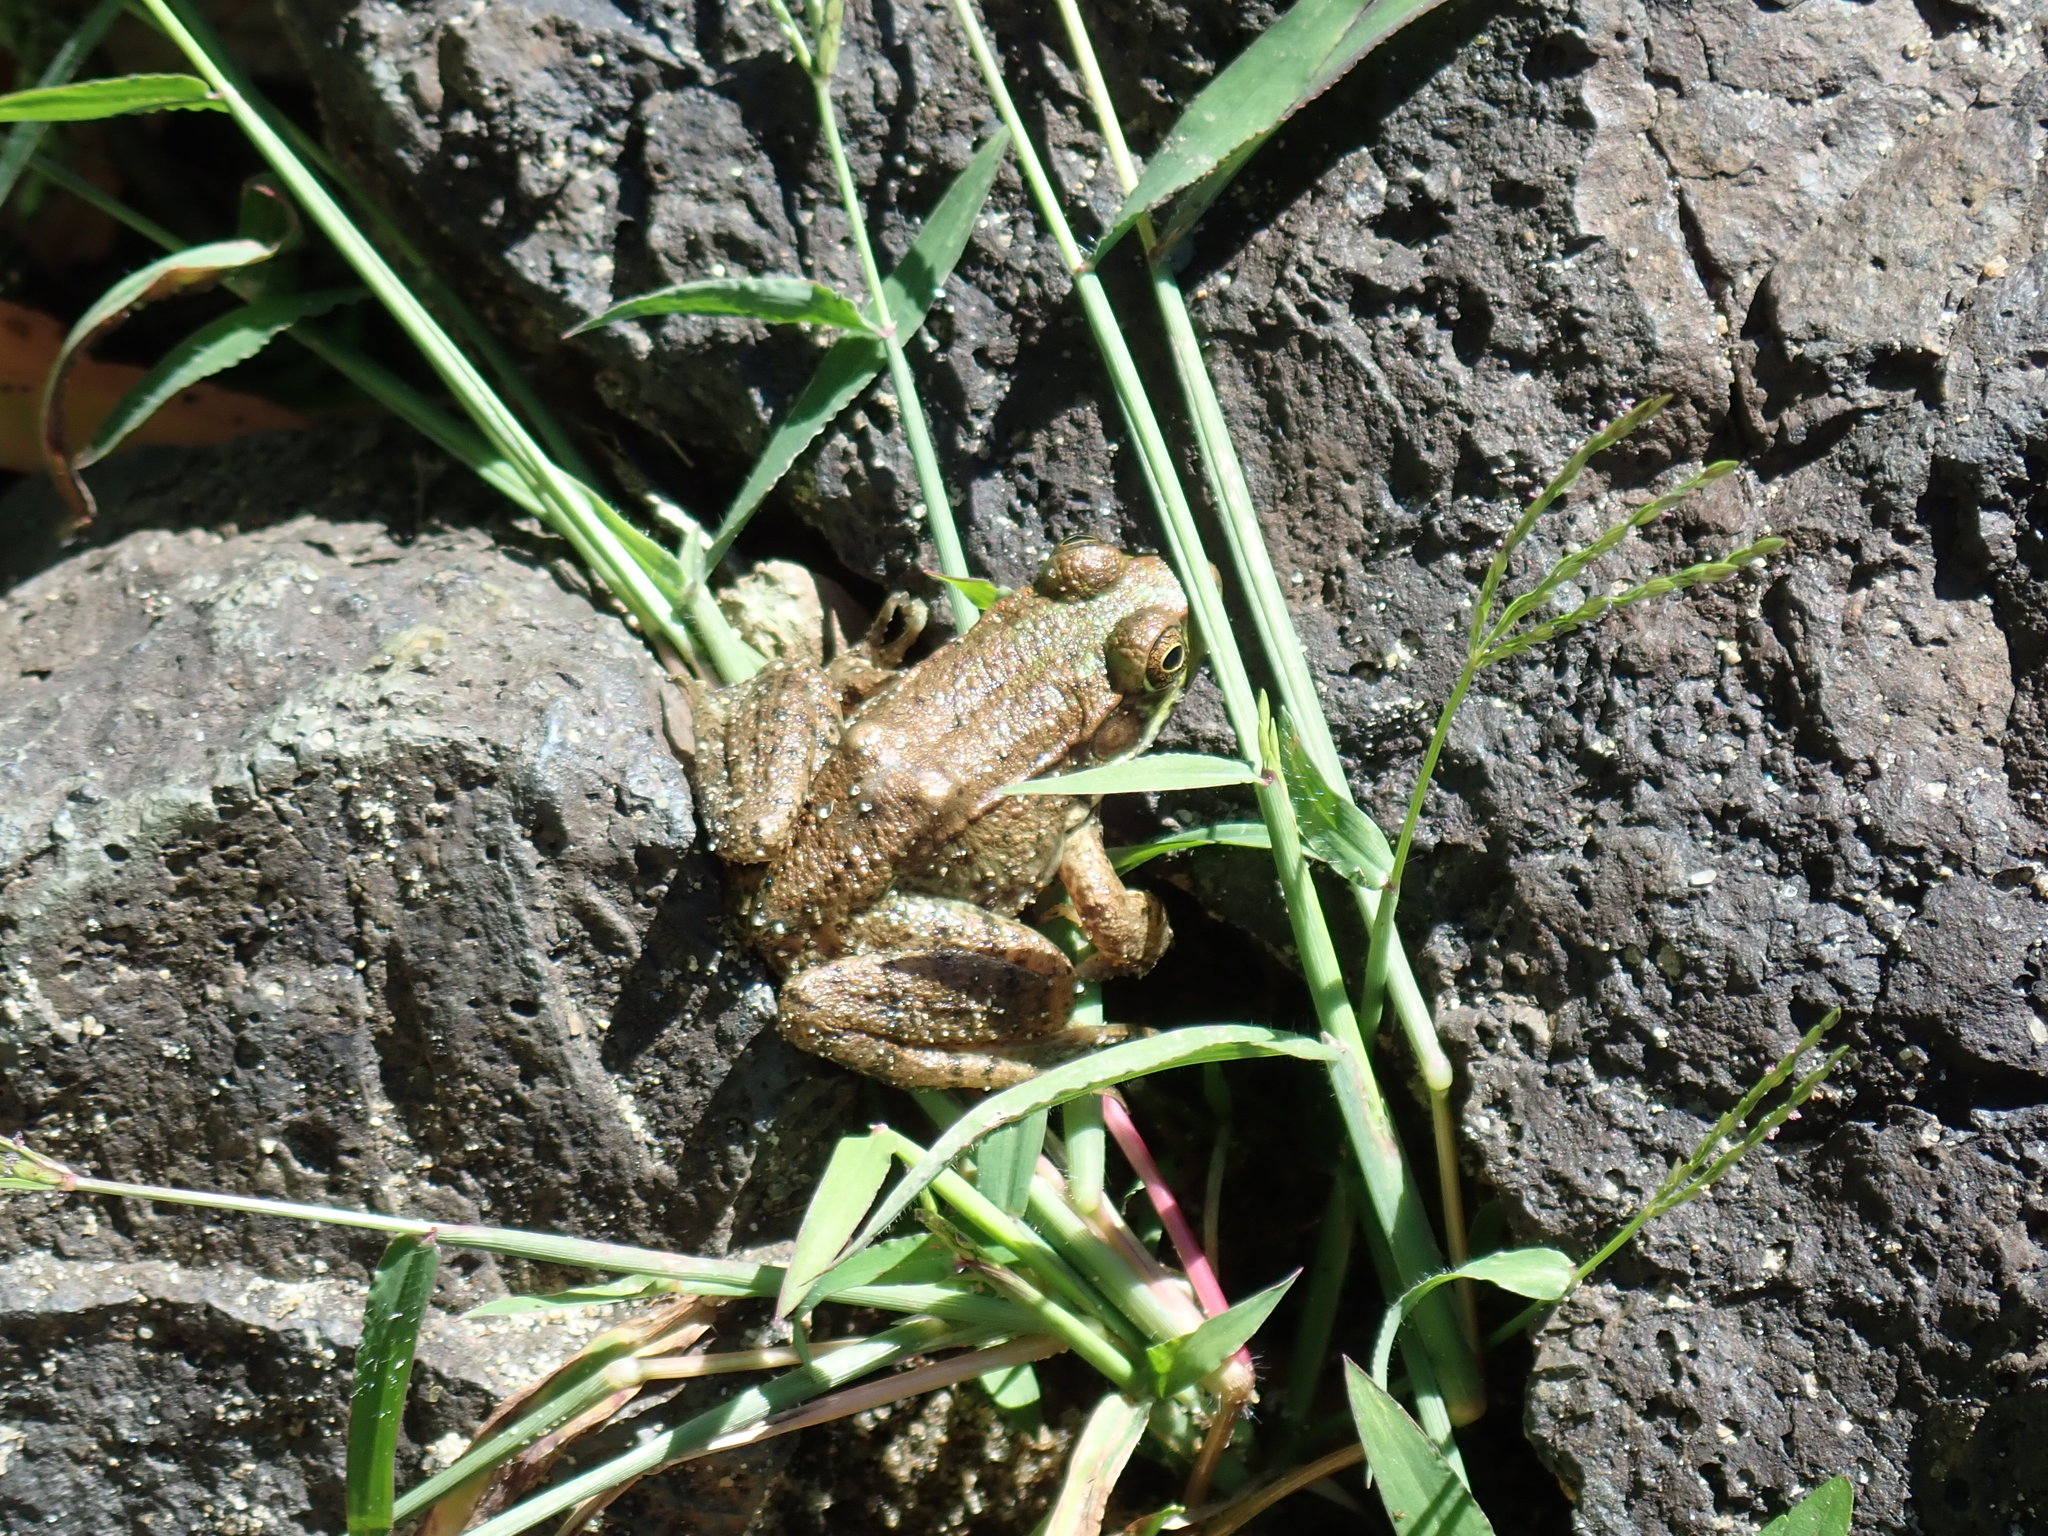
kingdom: Animalia
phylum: Chordata
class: Amphibia
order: Anura
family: Ranidae
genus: Lithobates
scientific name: Lithobates clamitans
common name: Green frog
